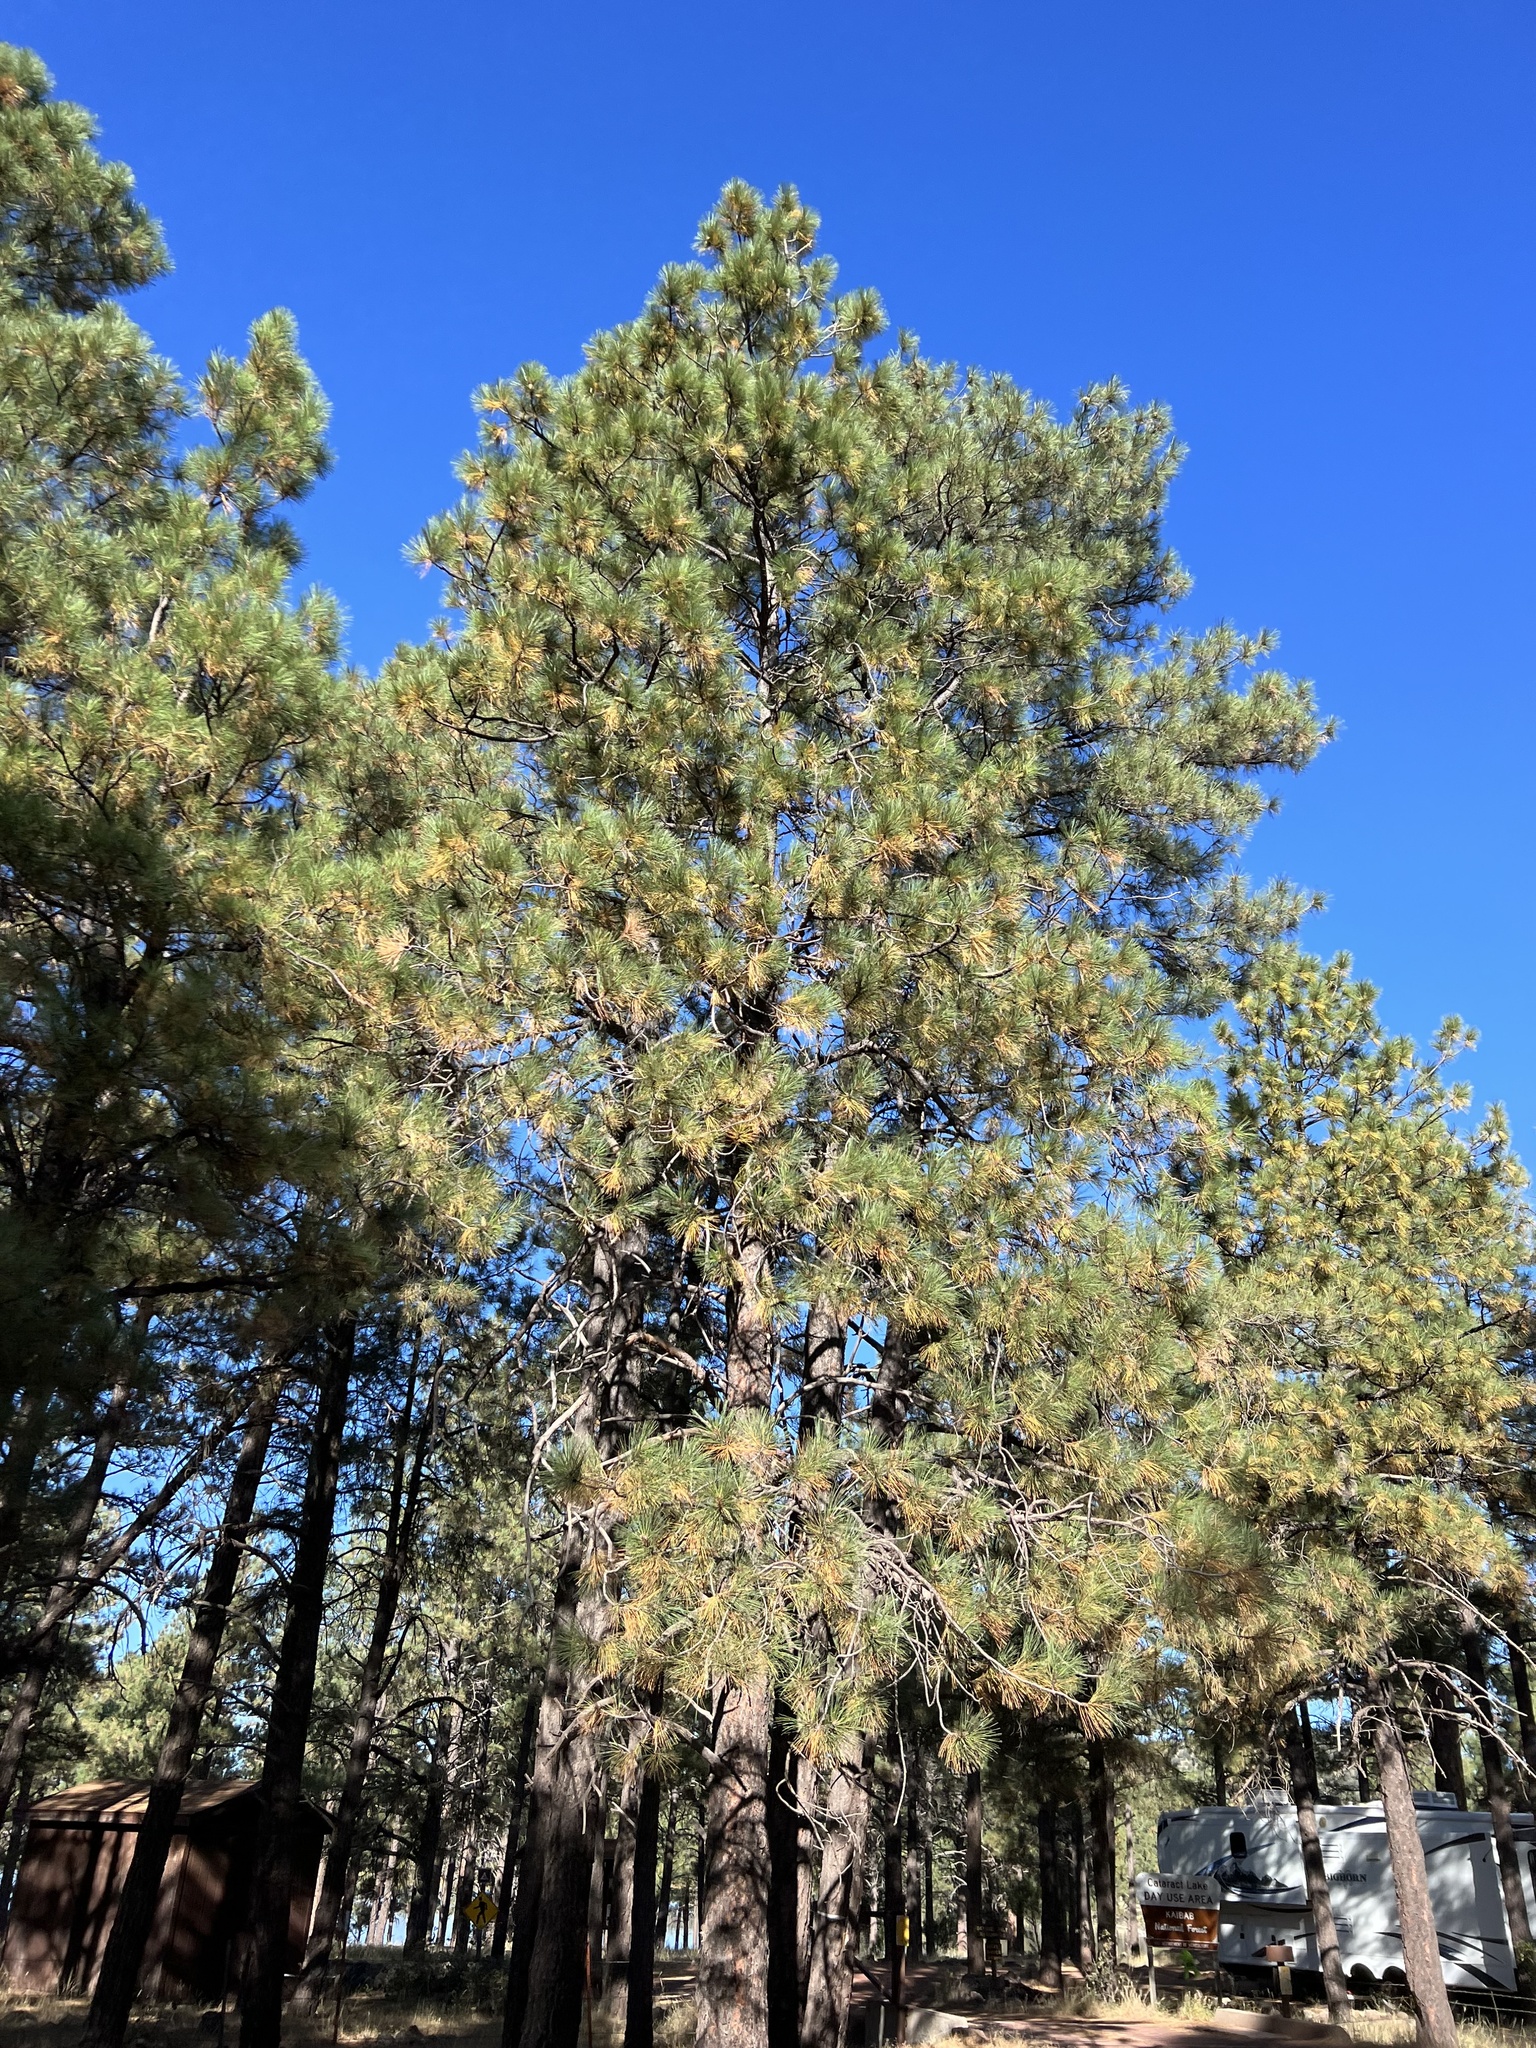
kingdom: Plantae
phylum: Tracheophyta
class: Pinopsida
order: Pinales
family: Pinaceae
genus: Pinus
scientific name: Pinus ponderosa
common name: Western yellow-pine
